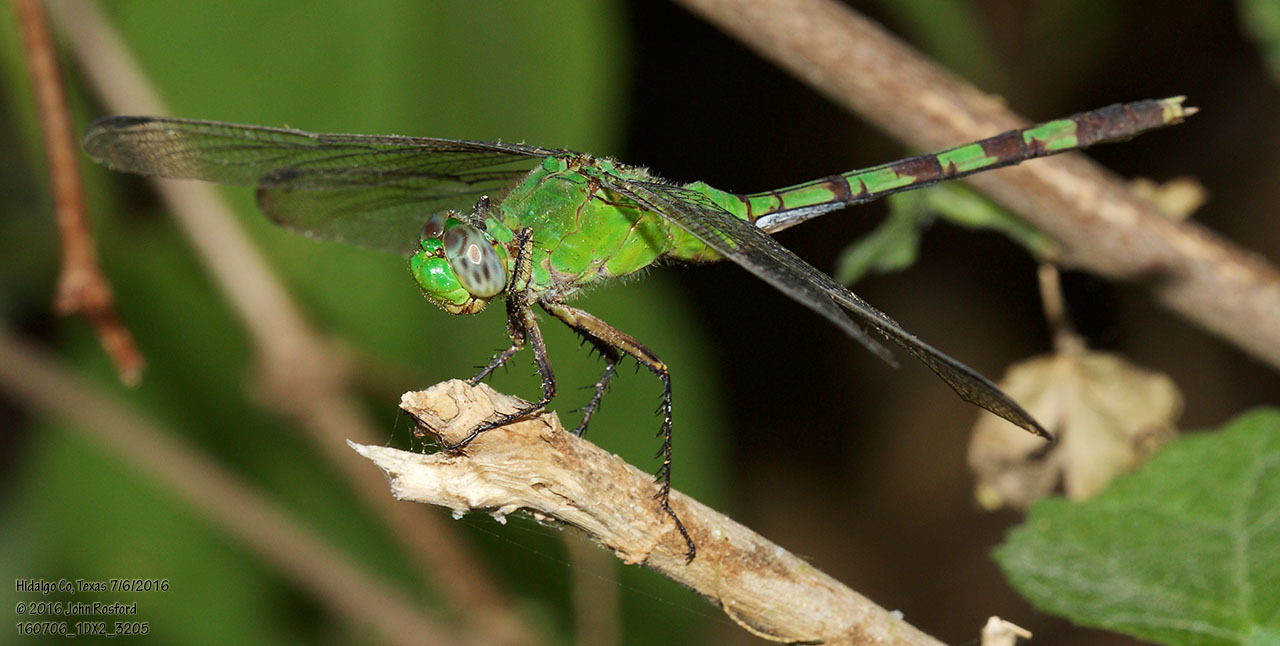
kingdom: Animalia
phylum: Arthropoda
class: Insecta
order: Odonata
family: Libellulidae
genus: Erythemis
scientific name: Erythemis vesiculosa
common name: Great pondhawk
